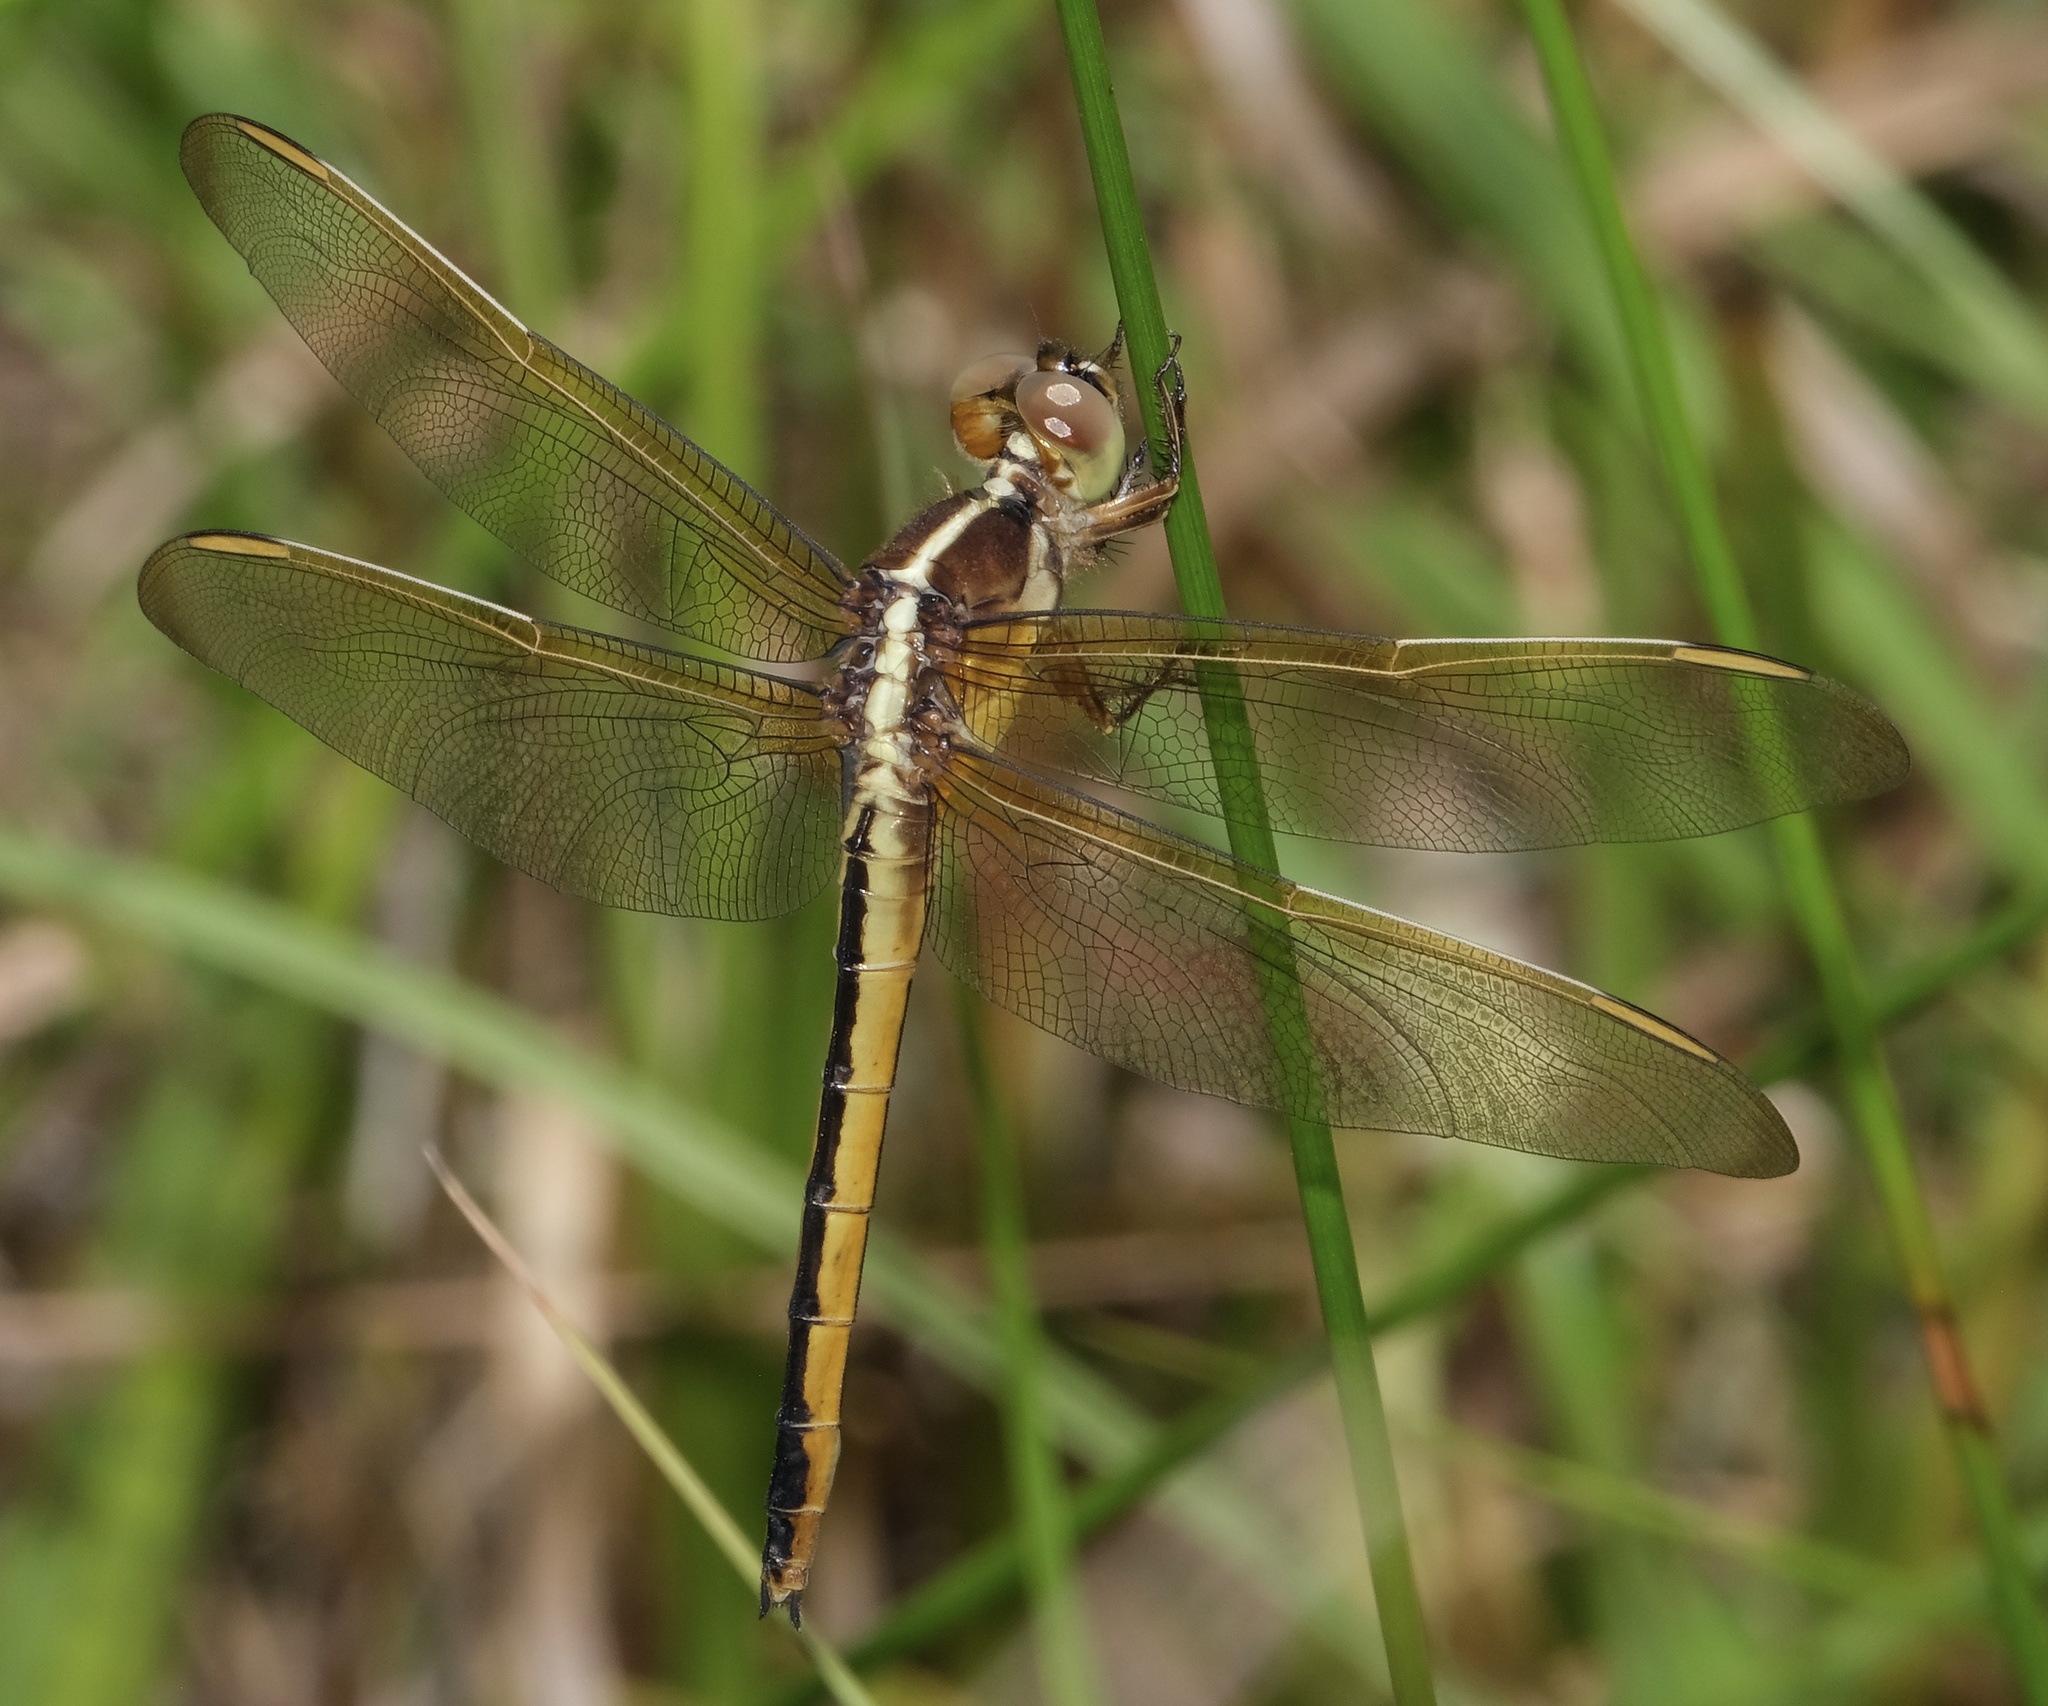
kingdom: Animalia
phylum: Arthropoda
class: Insecta
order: Odonata
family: Libellulidae
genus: Libellula
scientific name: Libellula needhami
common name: Needham's skimmer
